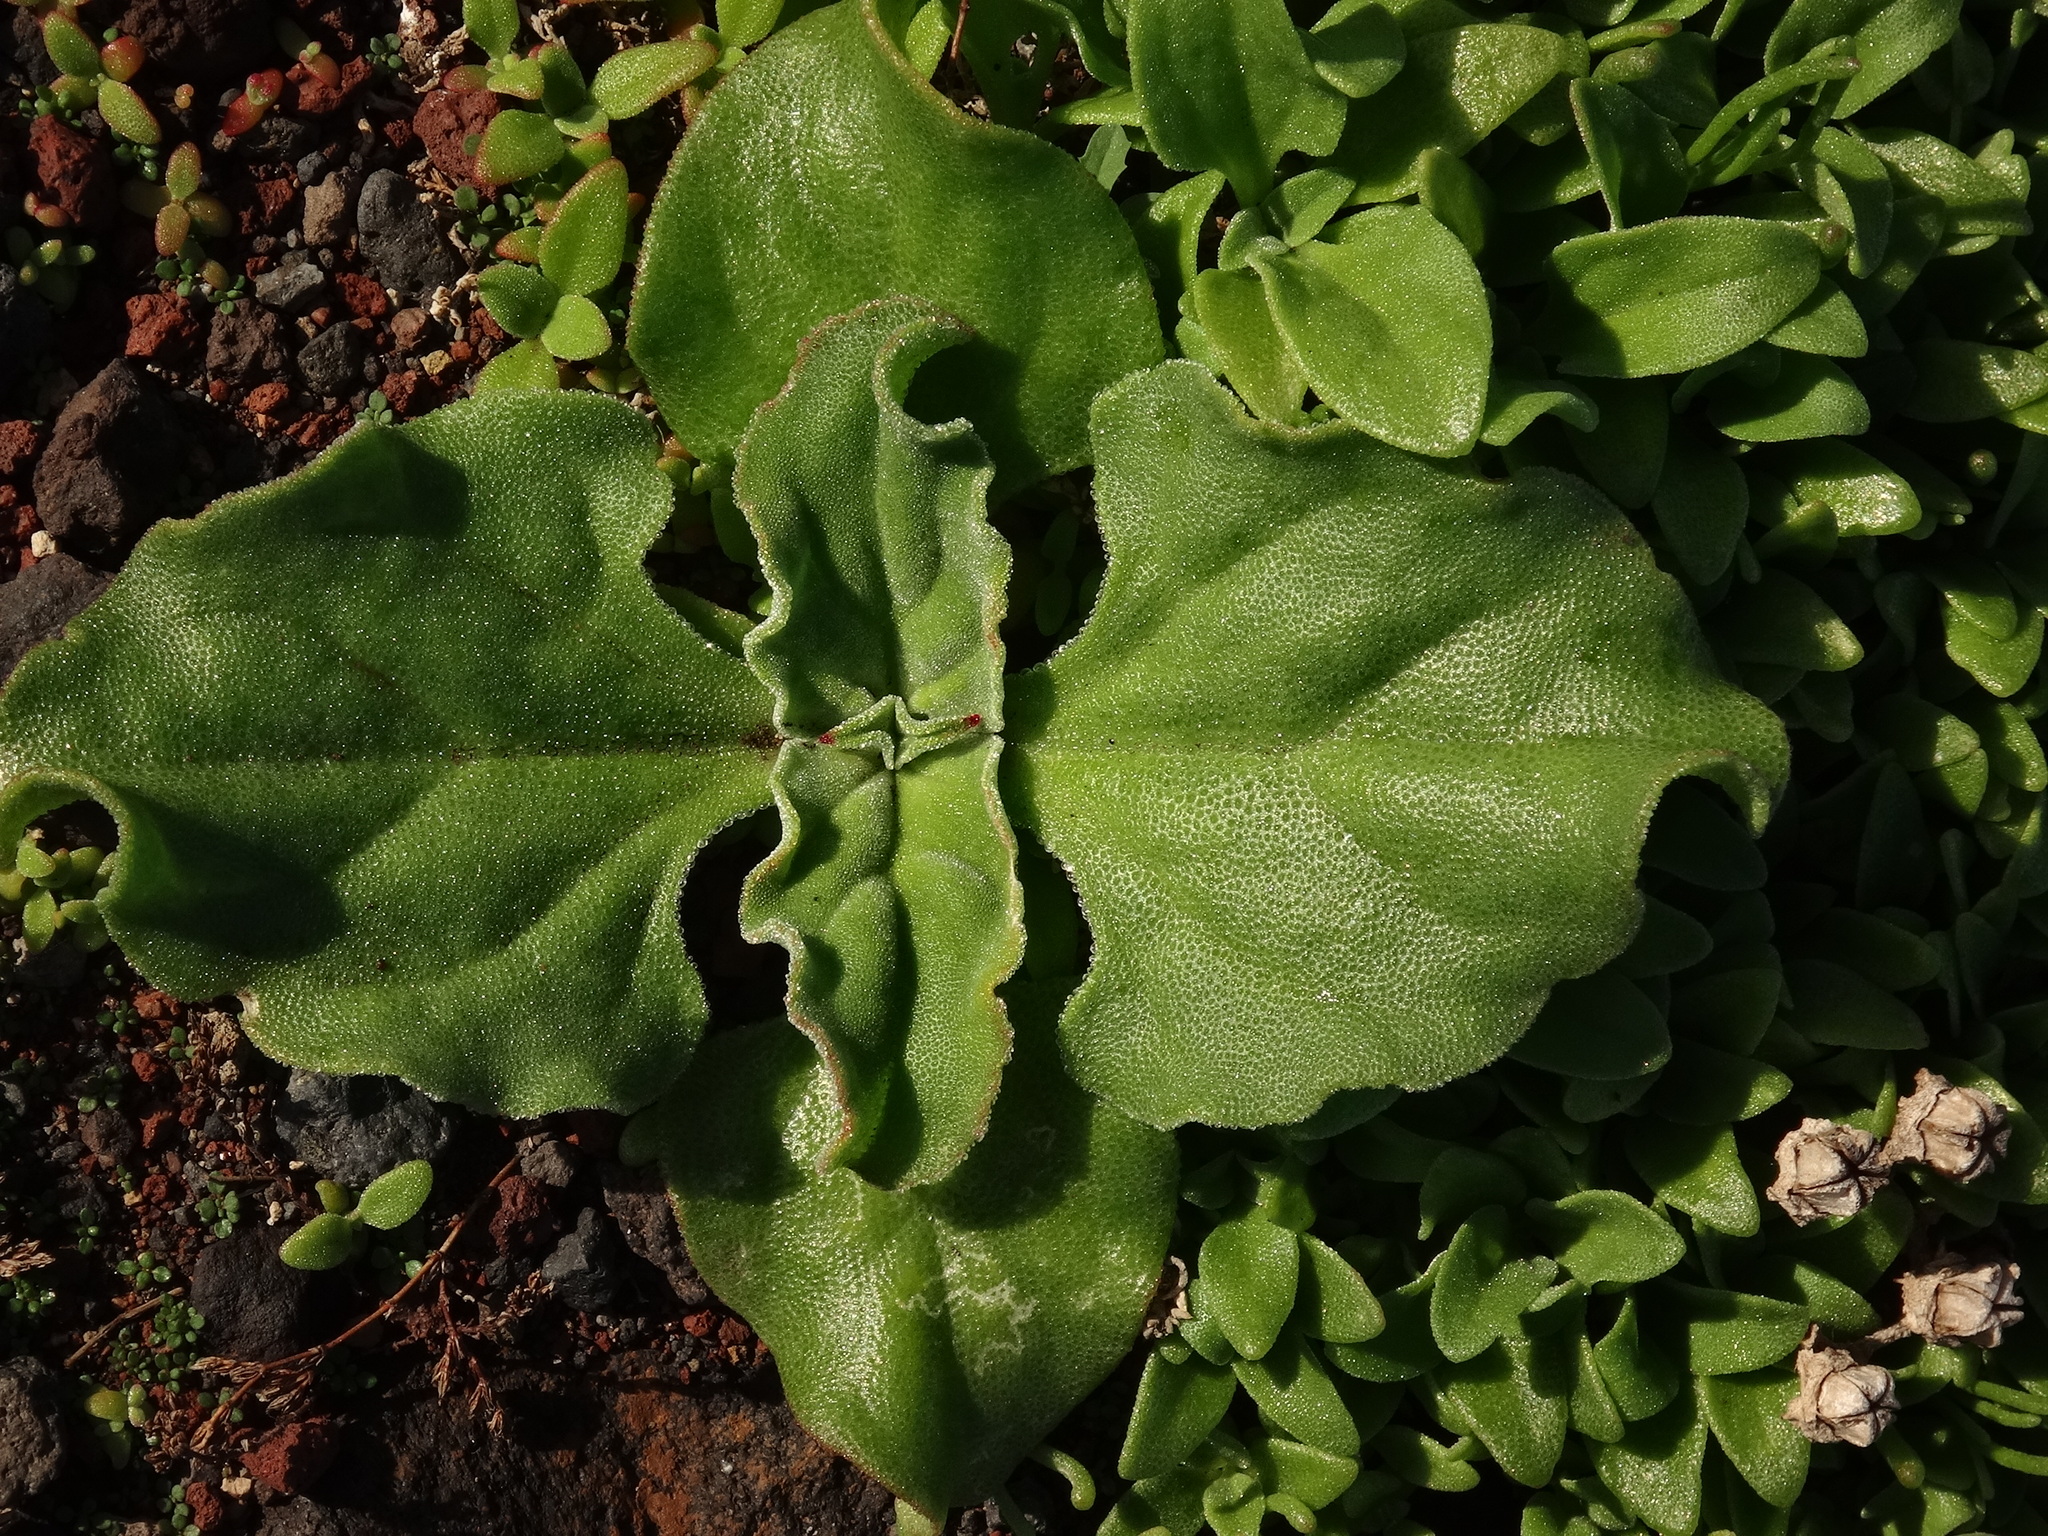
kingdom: Plantae
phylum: Tracheophyta
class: Magnoliopsida
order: Caryophyllales
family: Aizoaceae
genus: Mesembryanthemum
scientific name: Mesembryanthemum crystallinum
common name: Common iceplant
